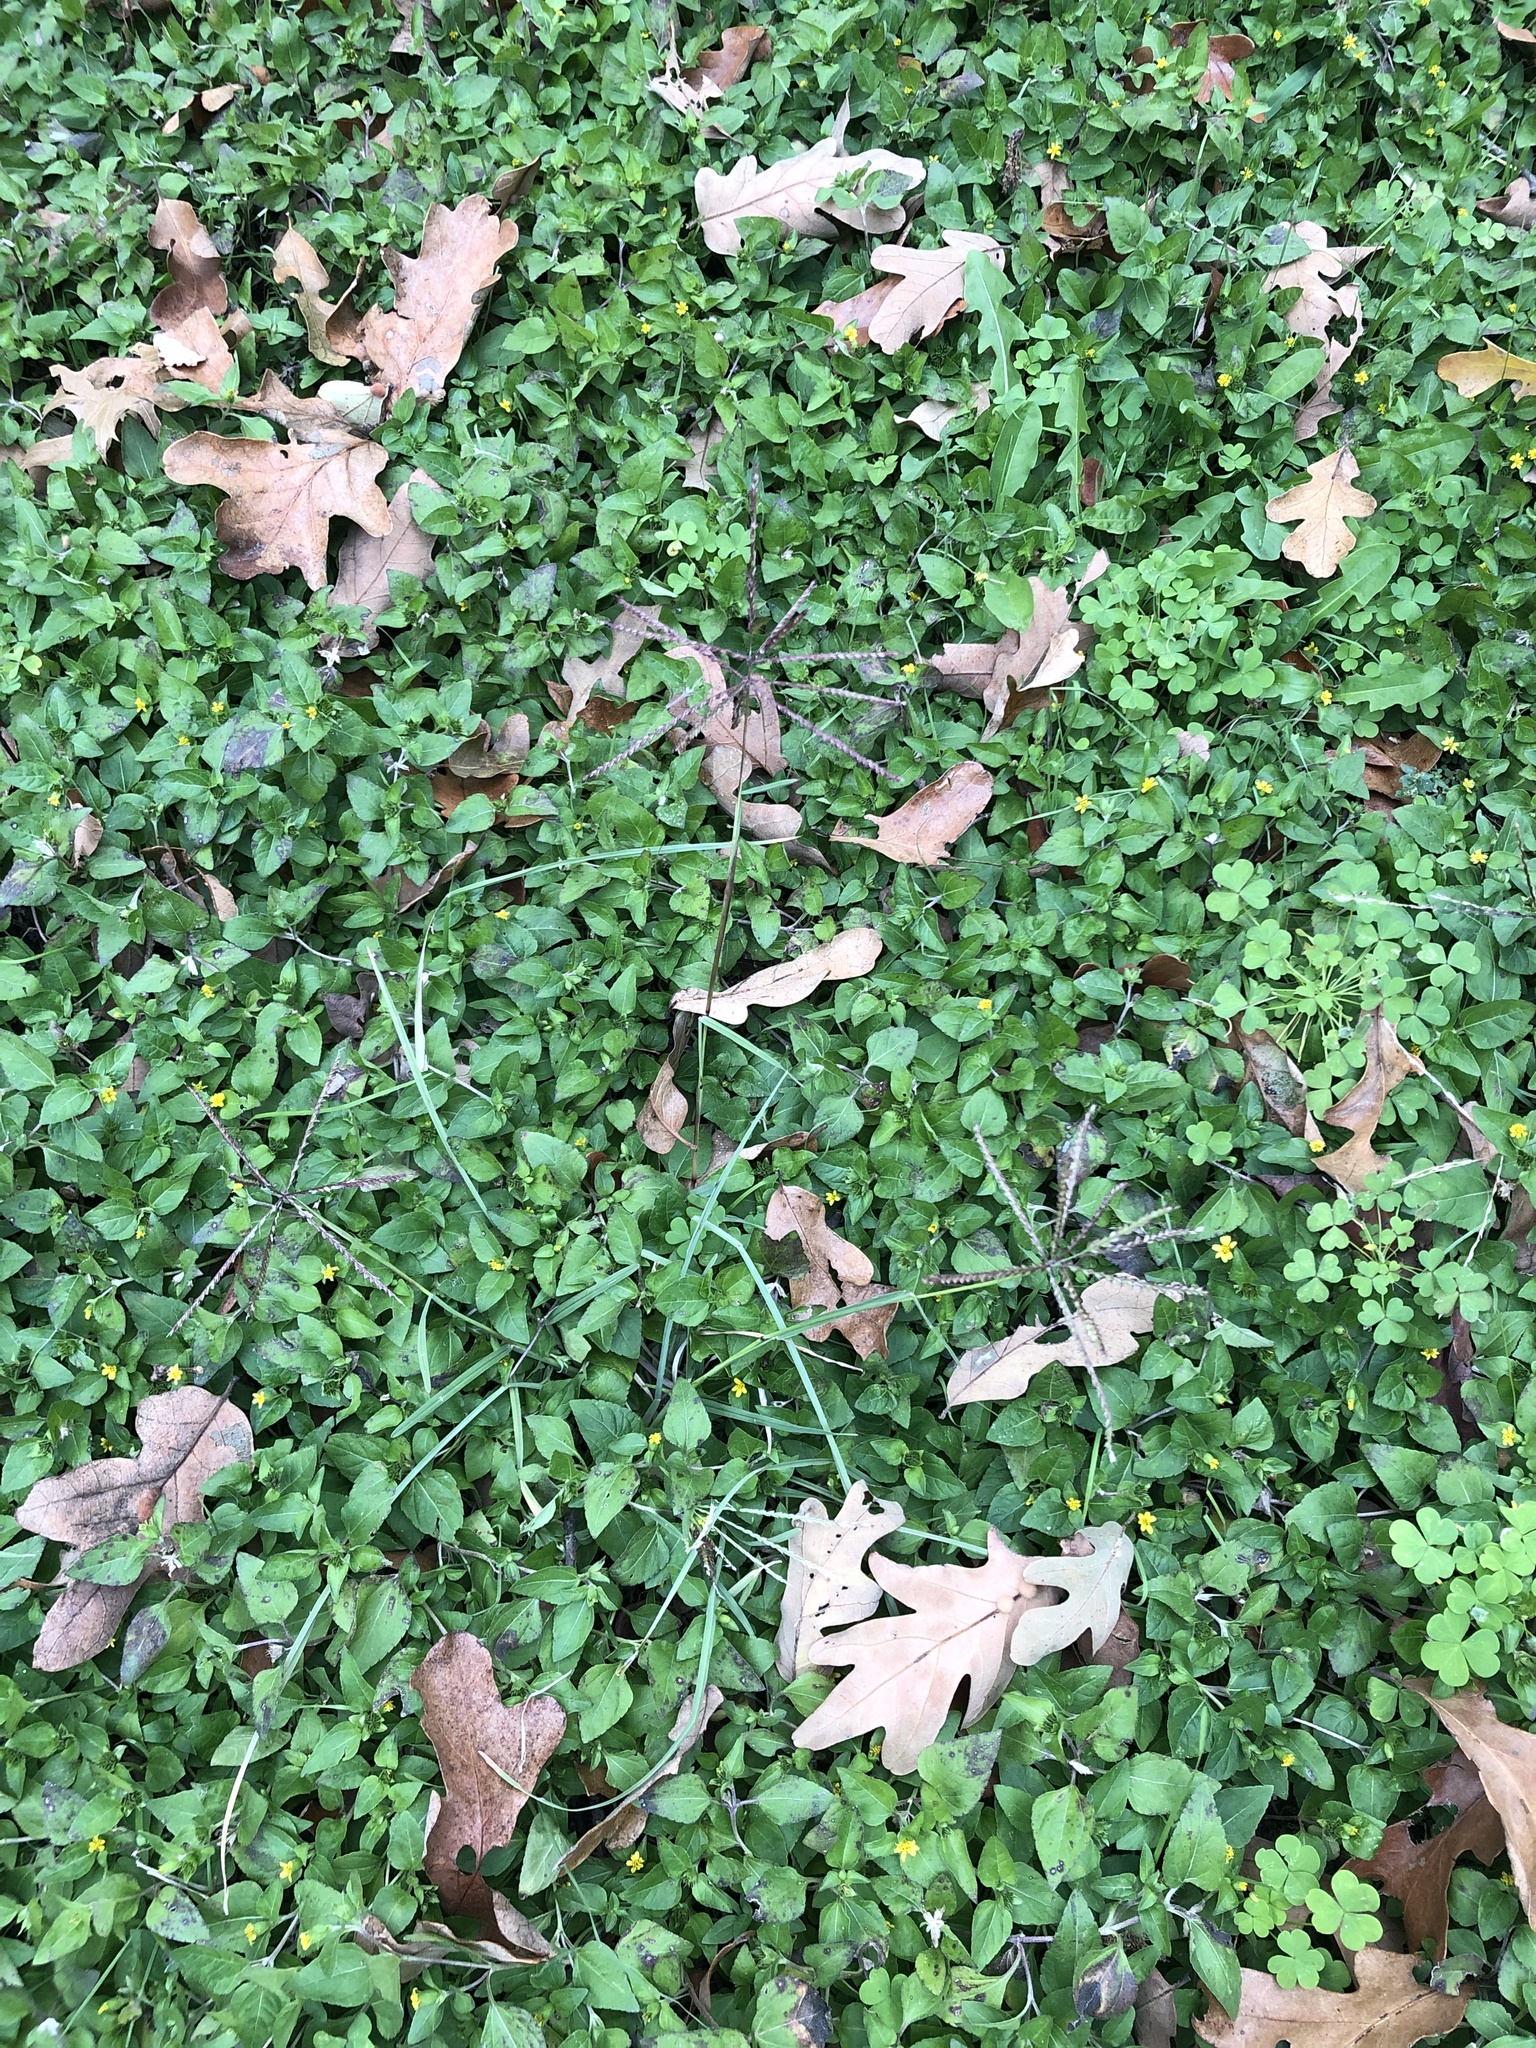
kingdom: Plantae
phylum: Tracheophyta
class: Liliopsida
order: Poales
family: Poaceae
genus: Chloris
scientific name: Chloris verticillata
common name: Tumble windmill grass
